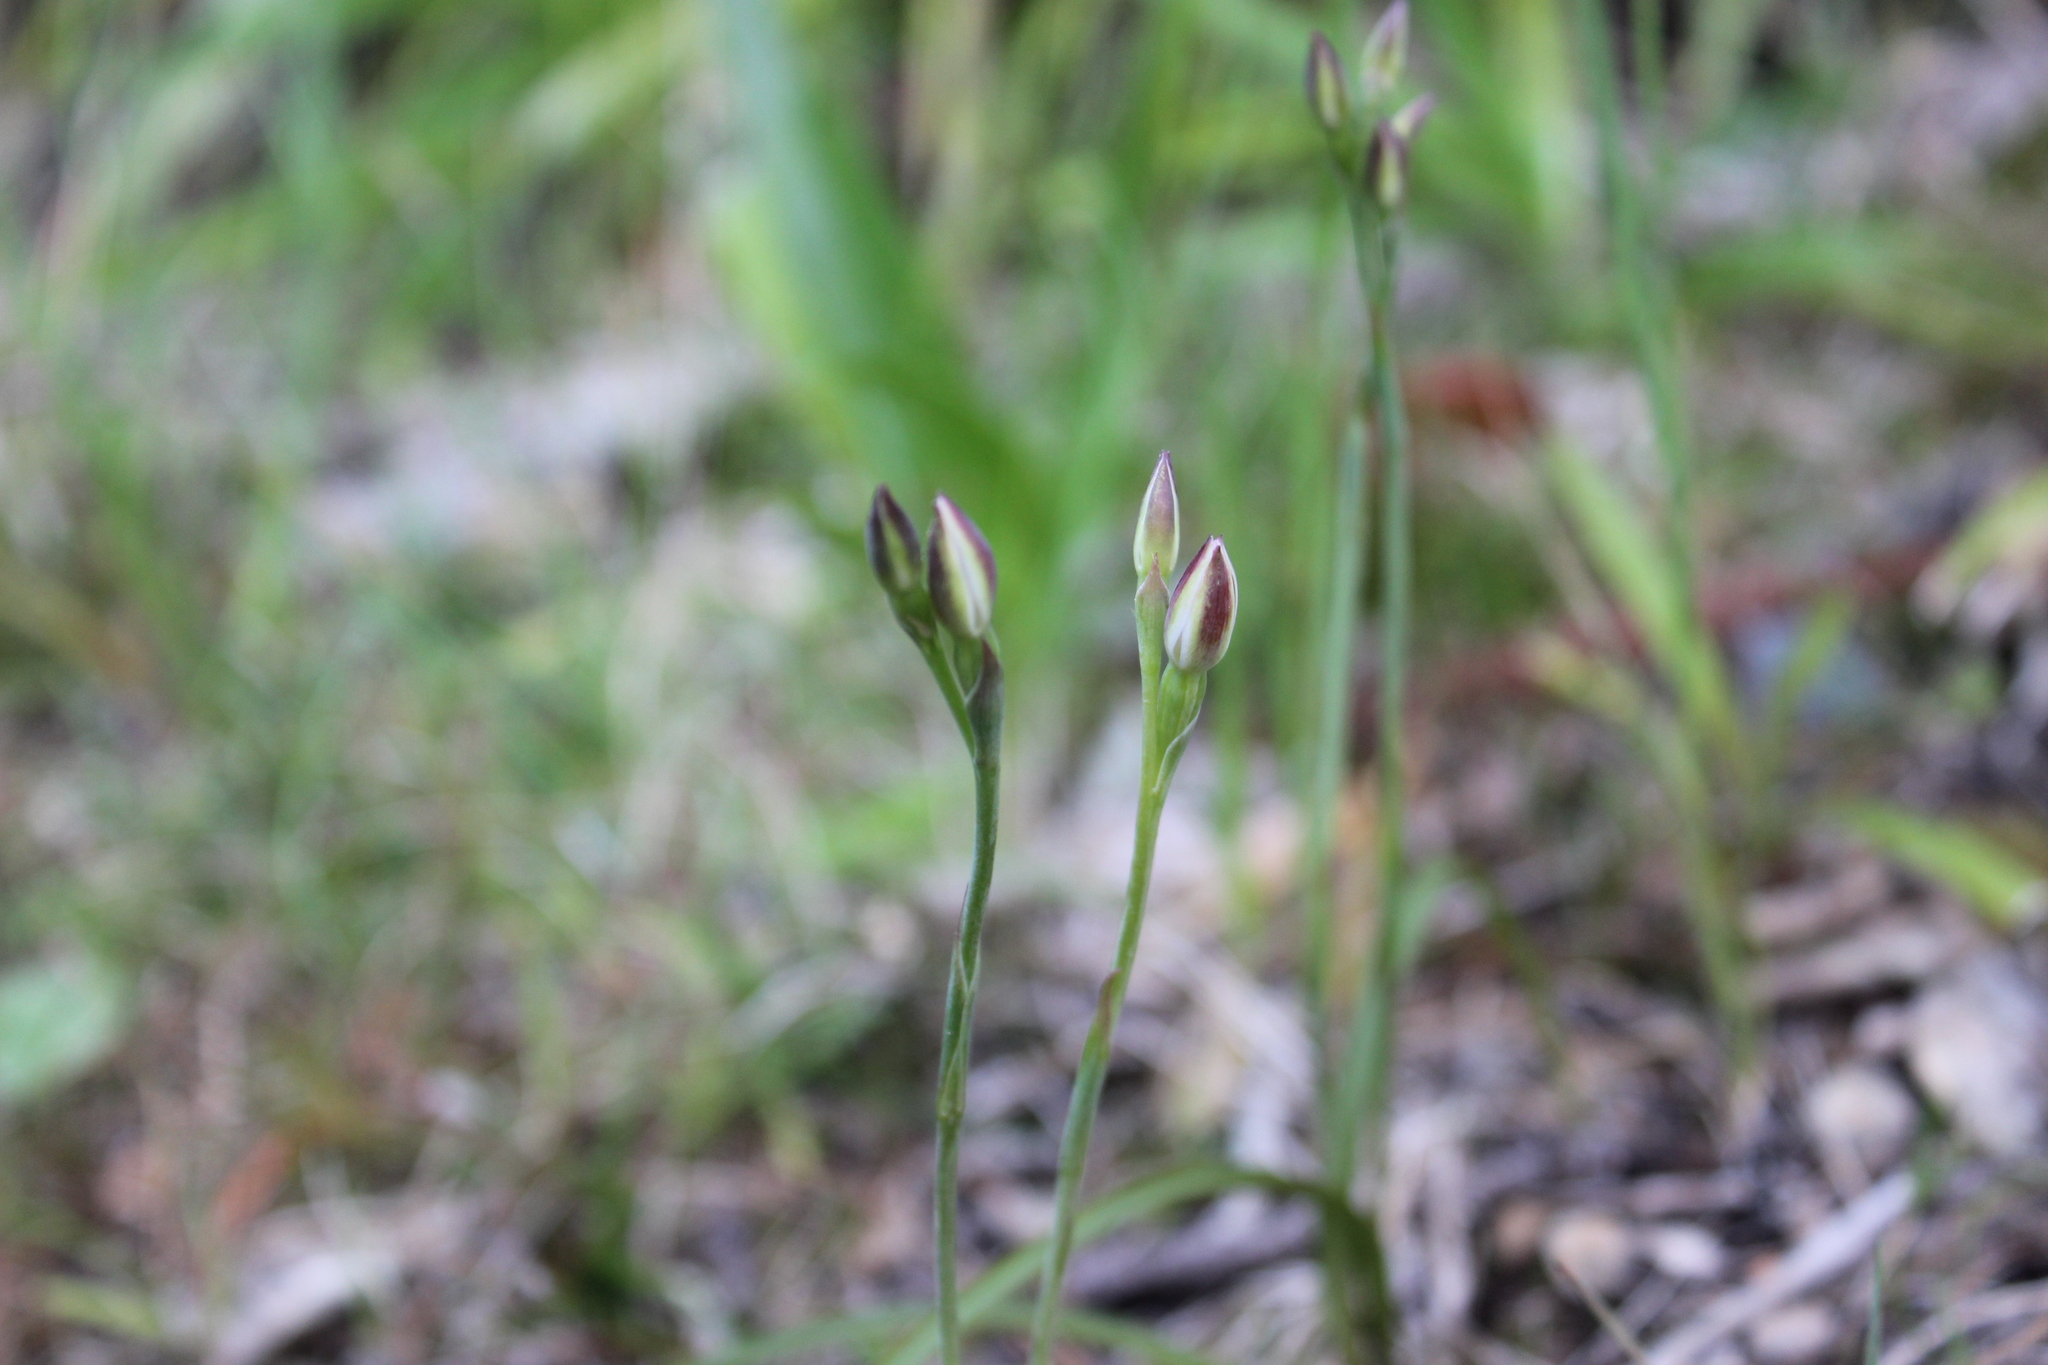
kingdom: Plantae
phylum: Tracheophyta
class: Liliopsida
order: Asparagales
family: Orchidaceae
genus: Thelymitra
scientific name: Thelymitra longifolia
